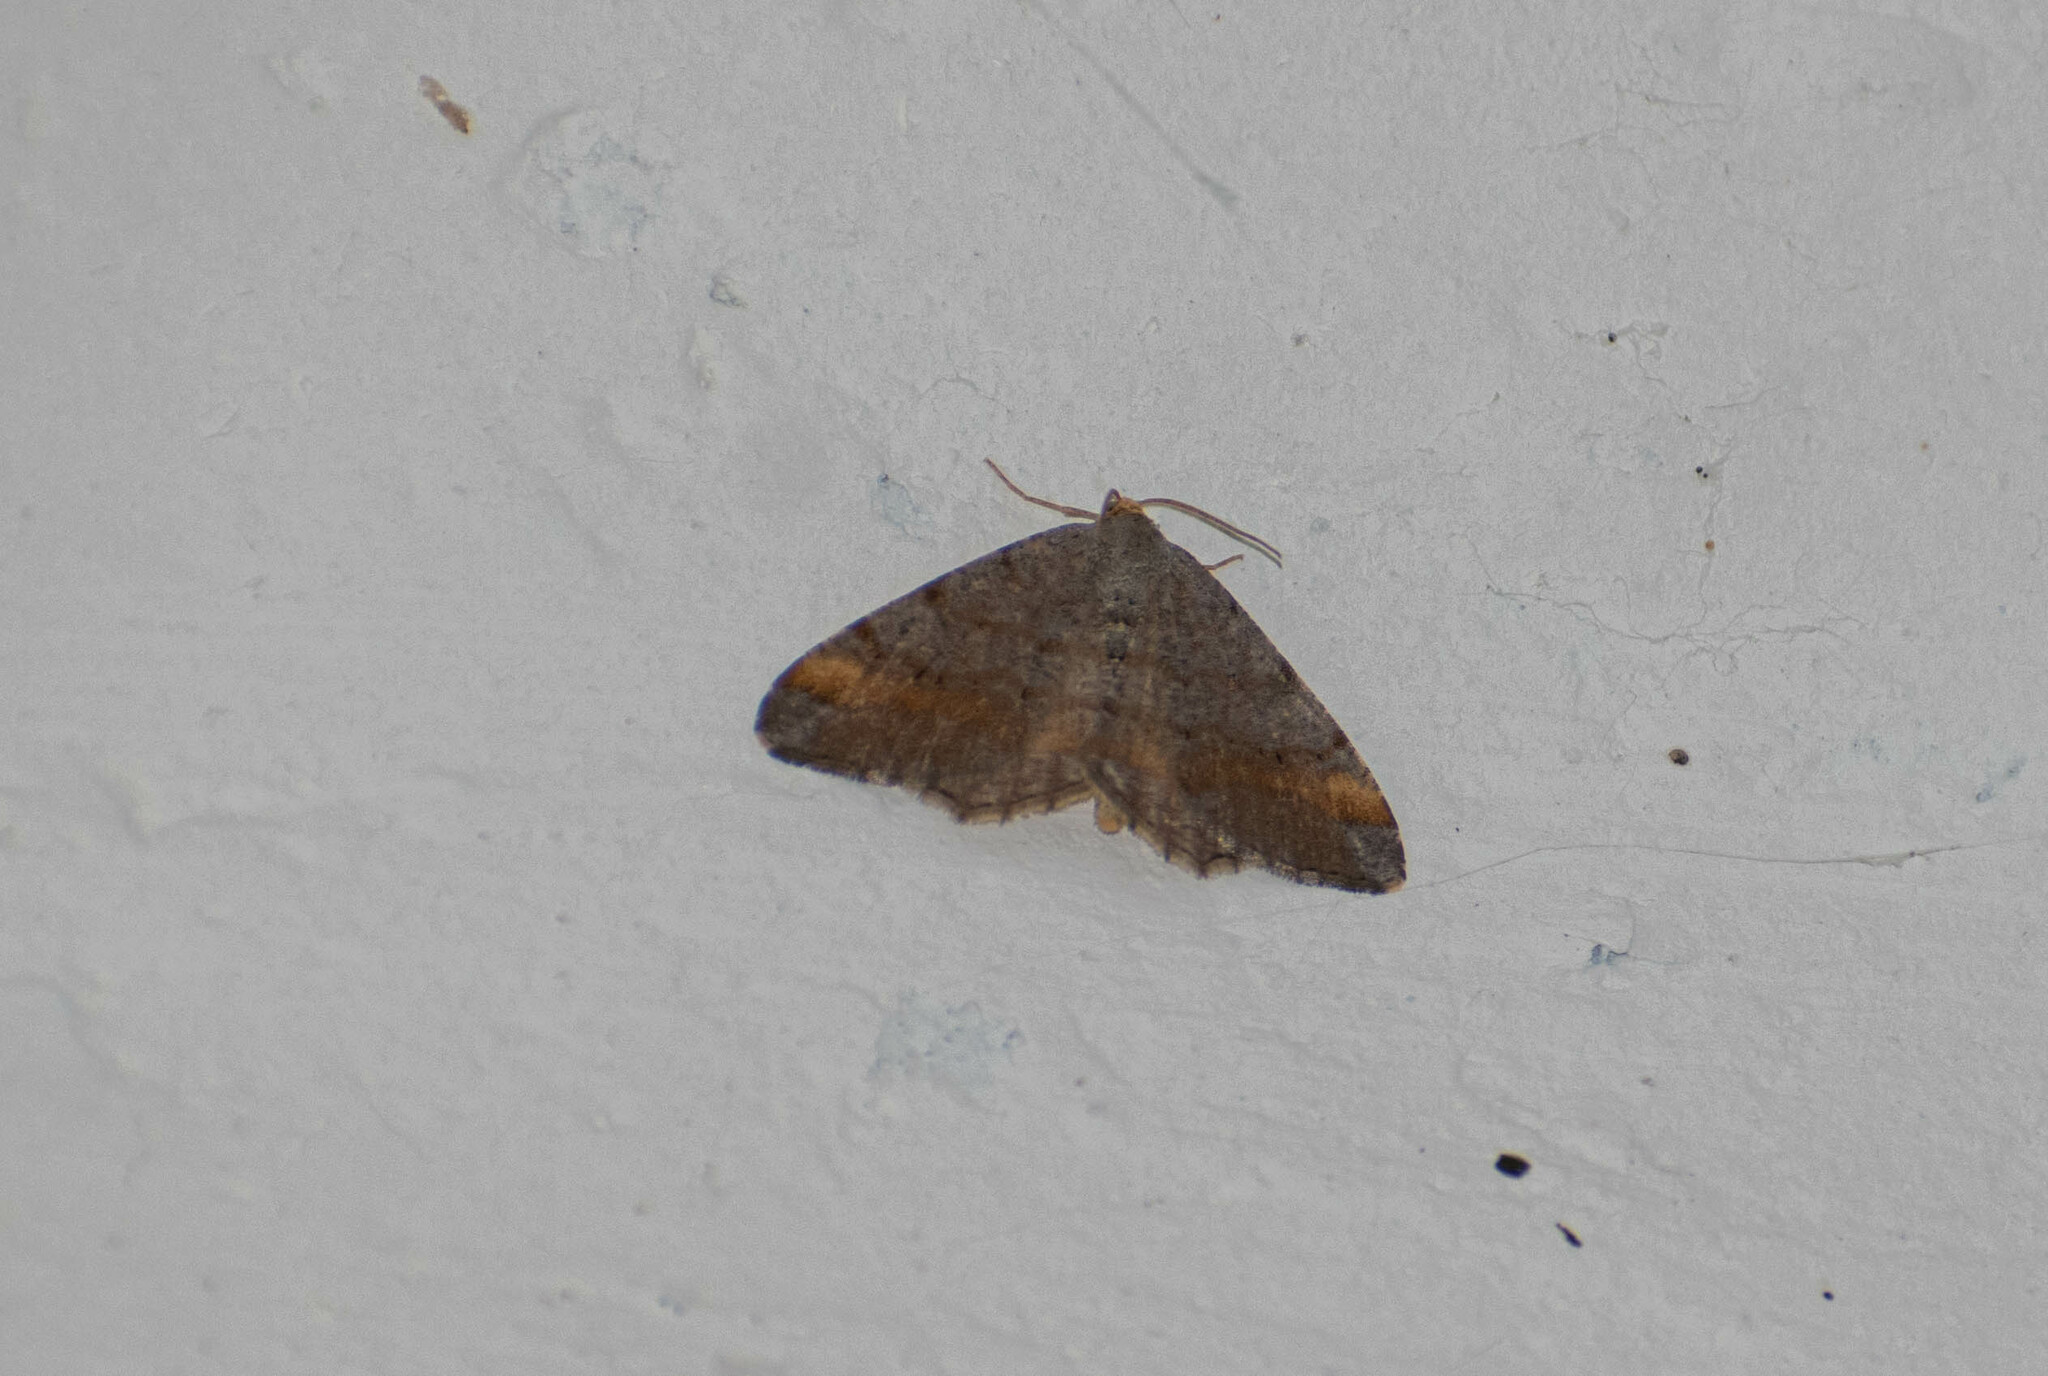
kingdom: Animalia
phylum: Arthropoda
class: Insecta
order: Lepidoptera
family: Geometridae
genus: Macaria
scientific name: Macaria liturata
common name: Tawny-barred angle
